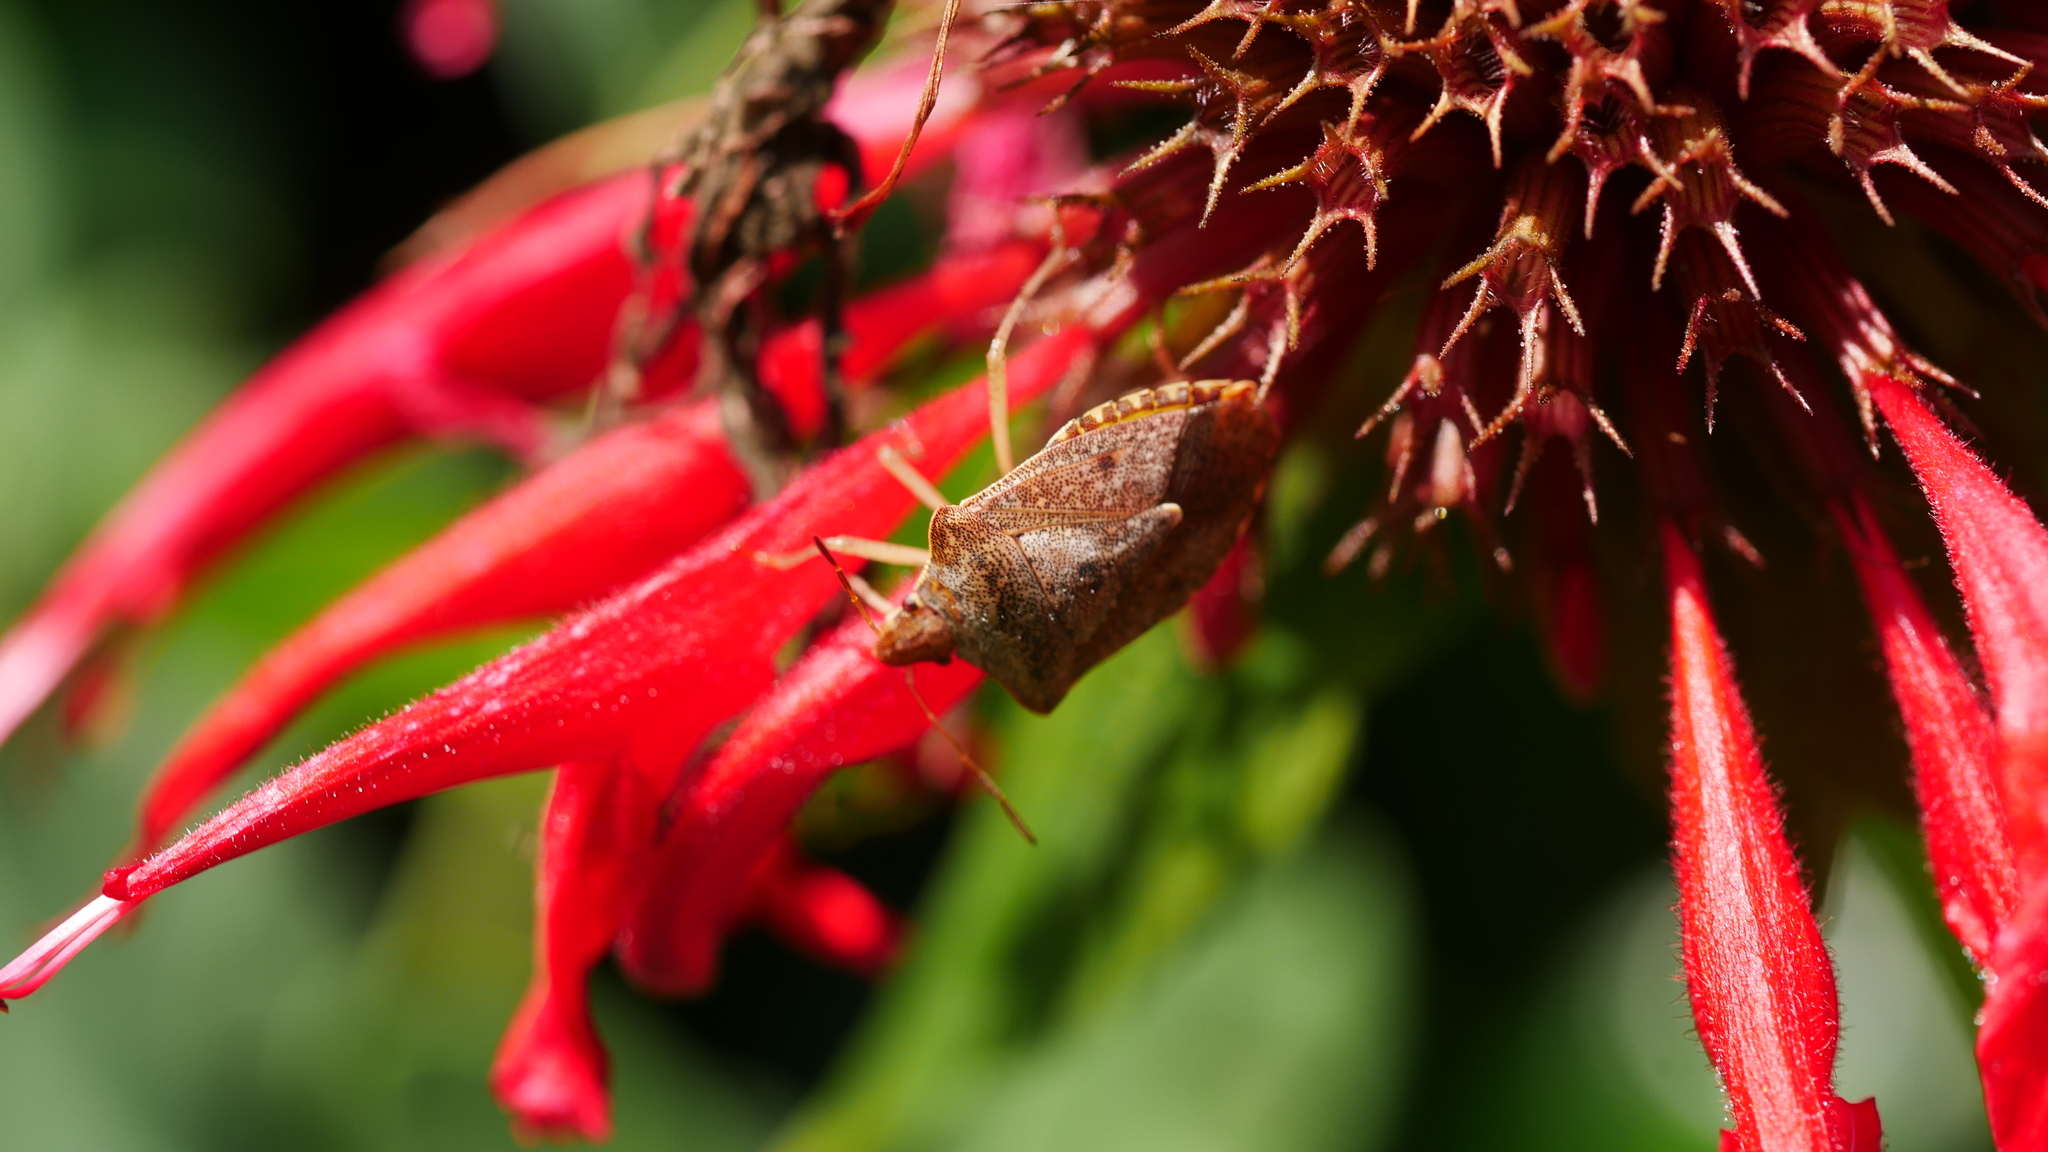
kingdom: Animalia
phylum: Arthropoda
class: Insecta
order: Hemiptera
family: Pentatomidae
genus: Euschistus
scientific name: Euschistus
